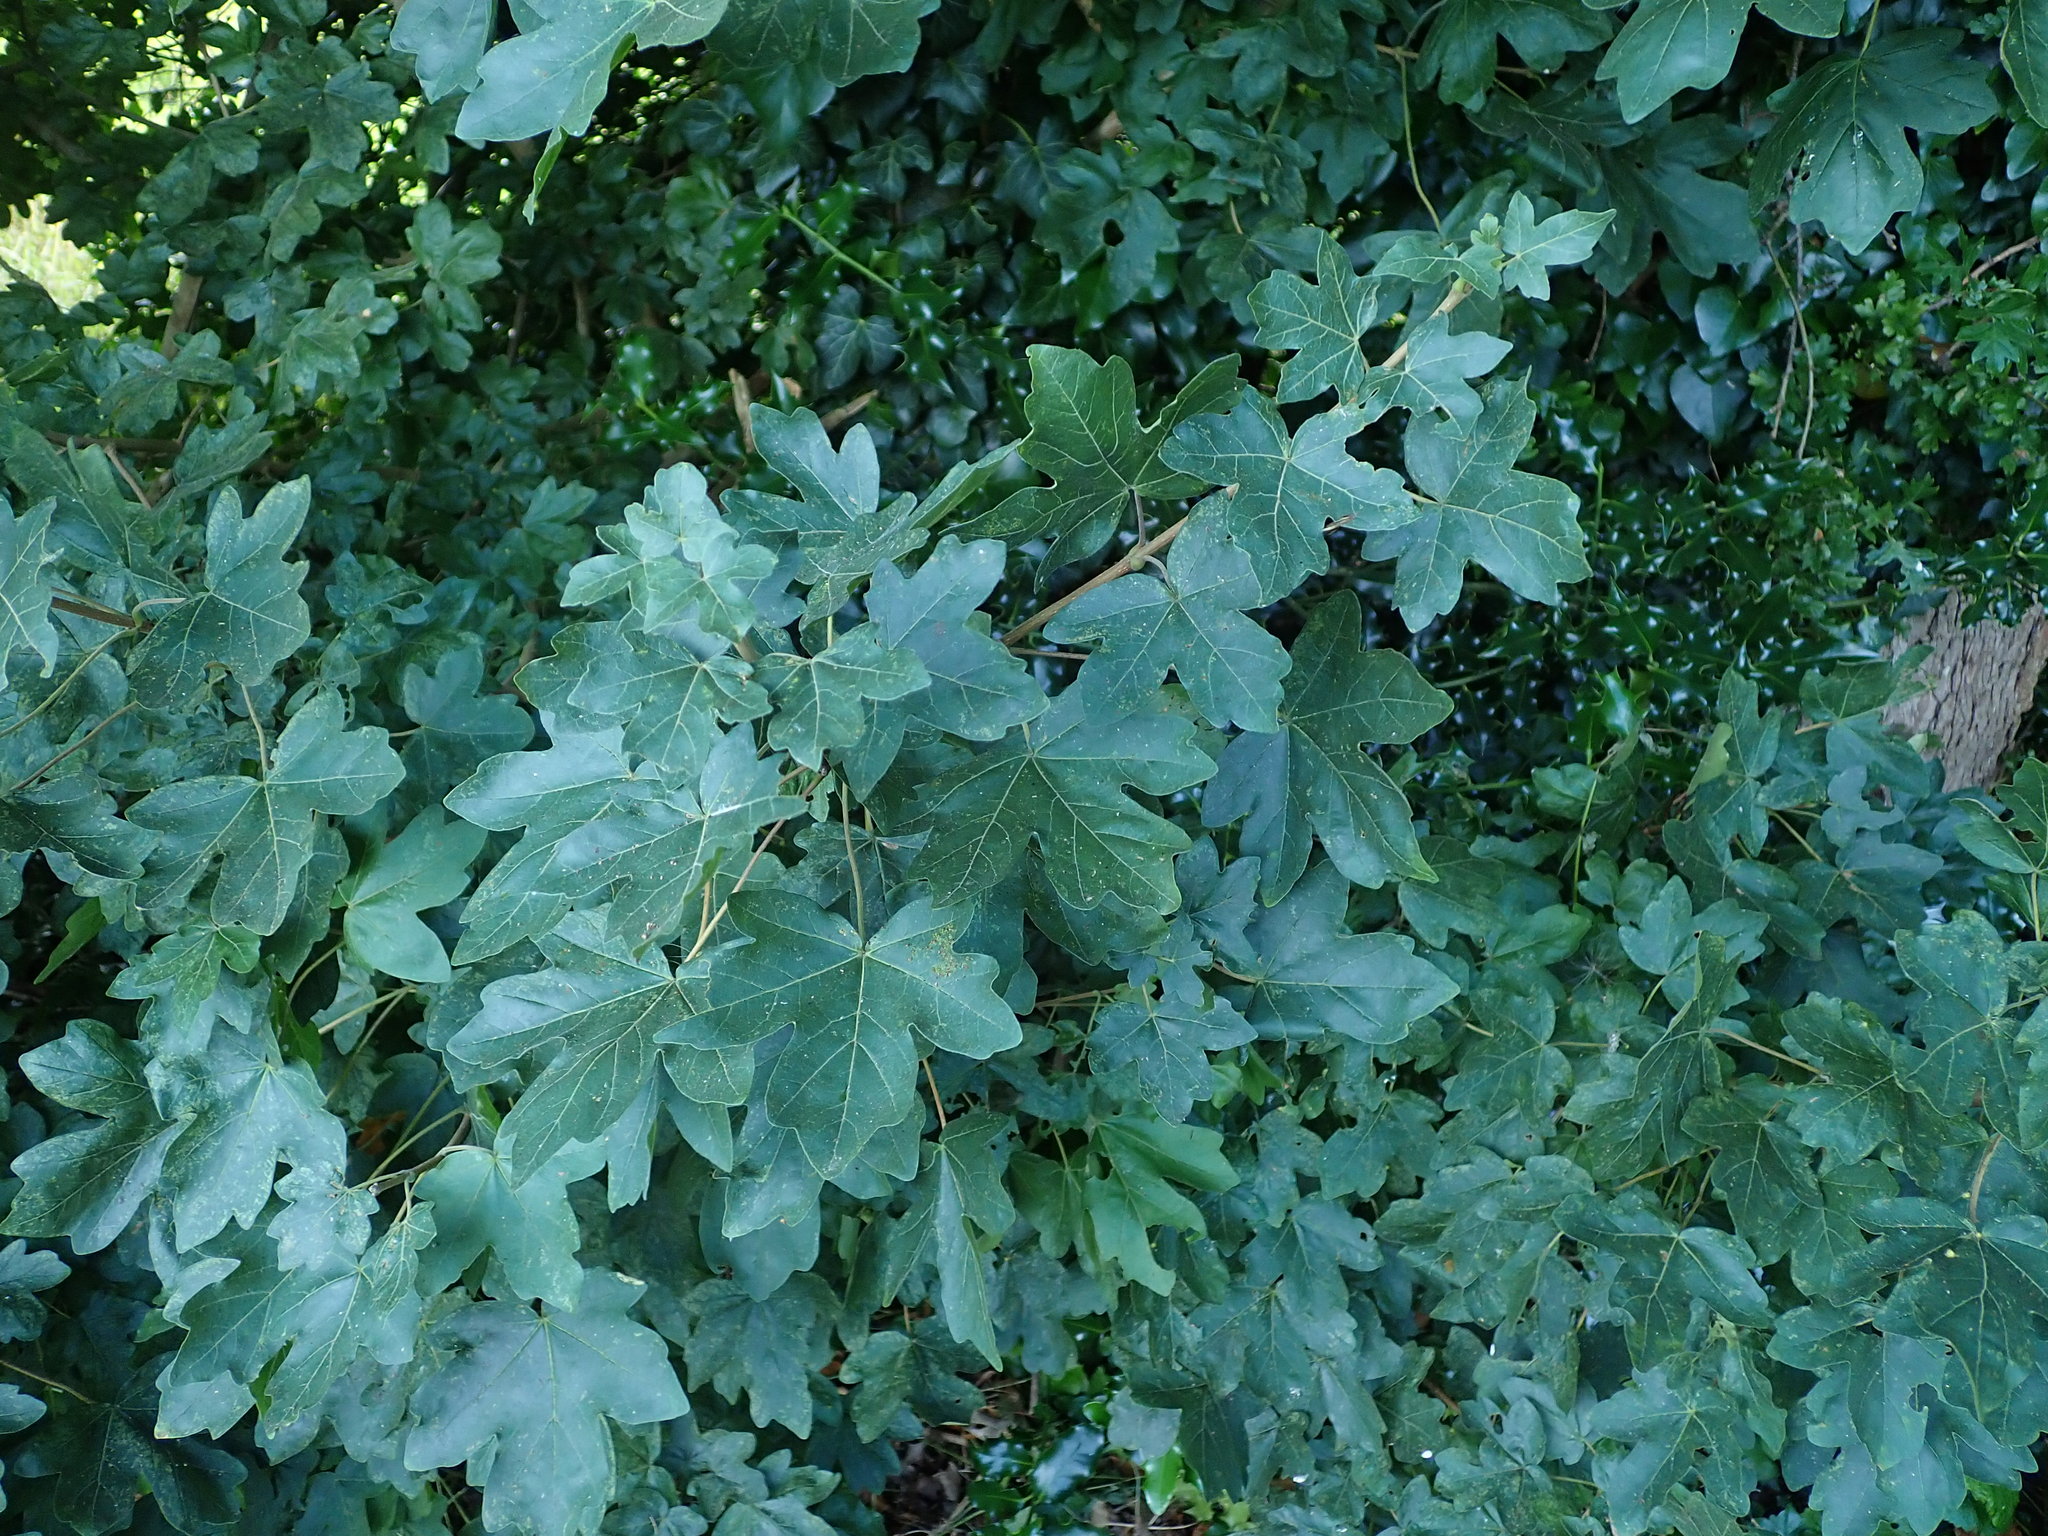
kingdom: Plantae
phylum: Tracheophyta
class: Magnoliopsida
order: Sapindales
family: Sapindaceae
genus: Acer
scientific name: Acer campestre
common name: Field maple
